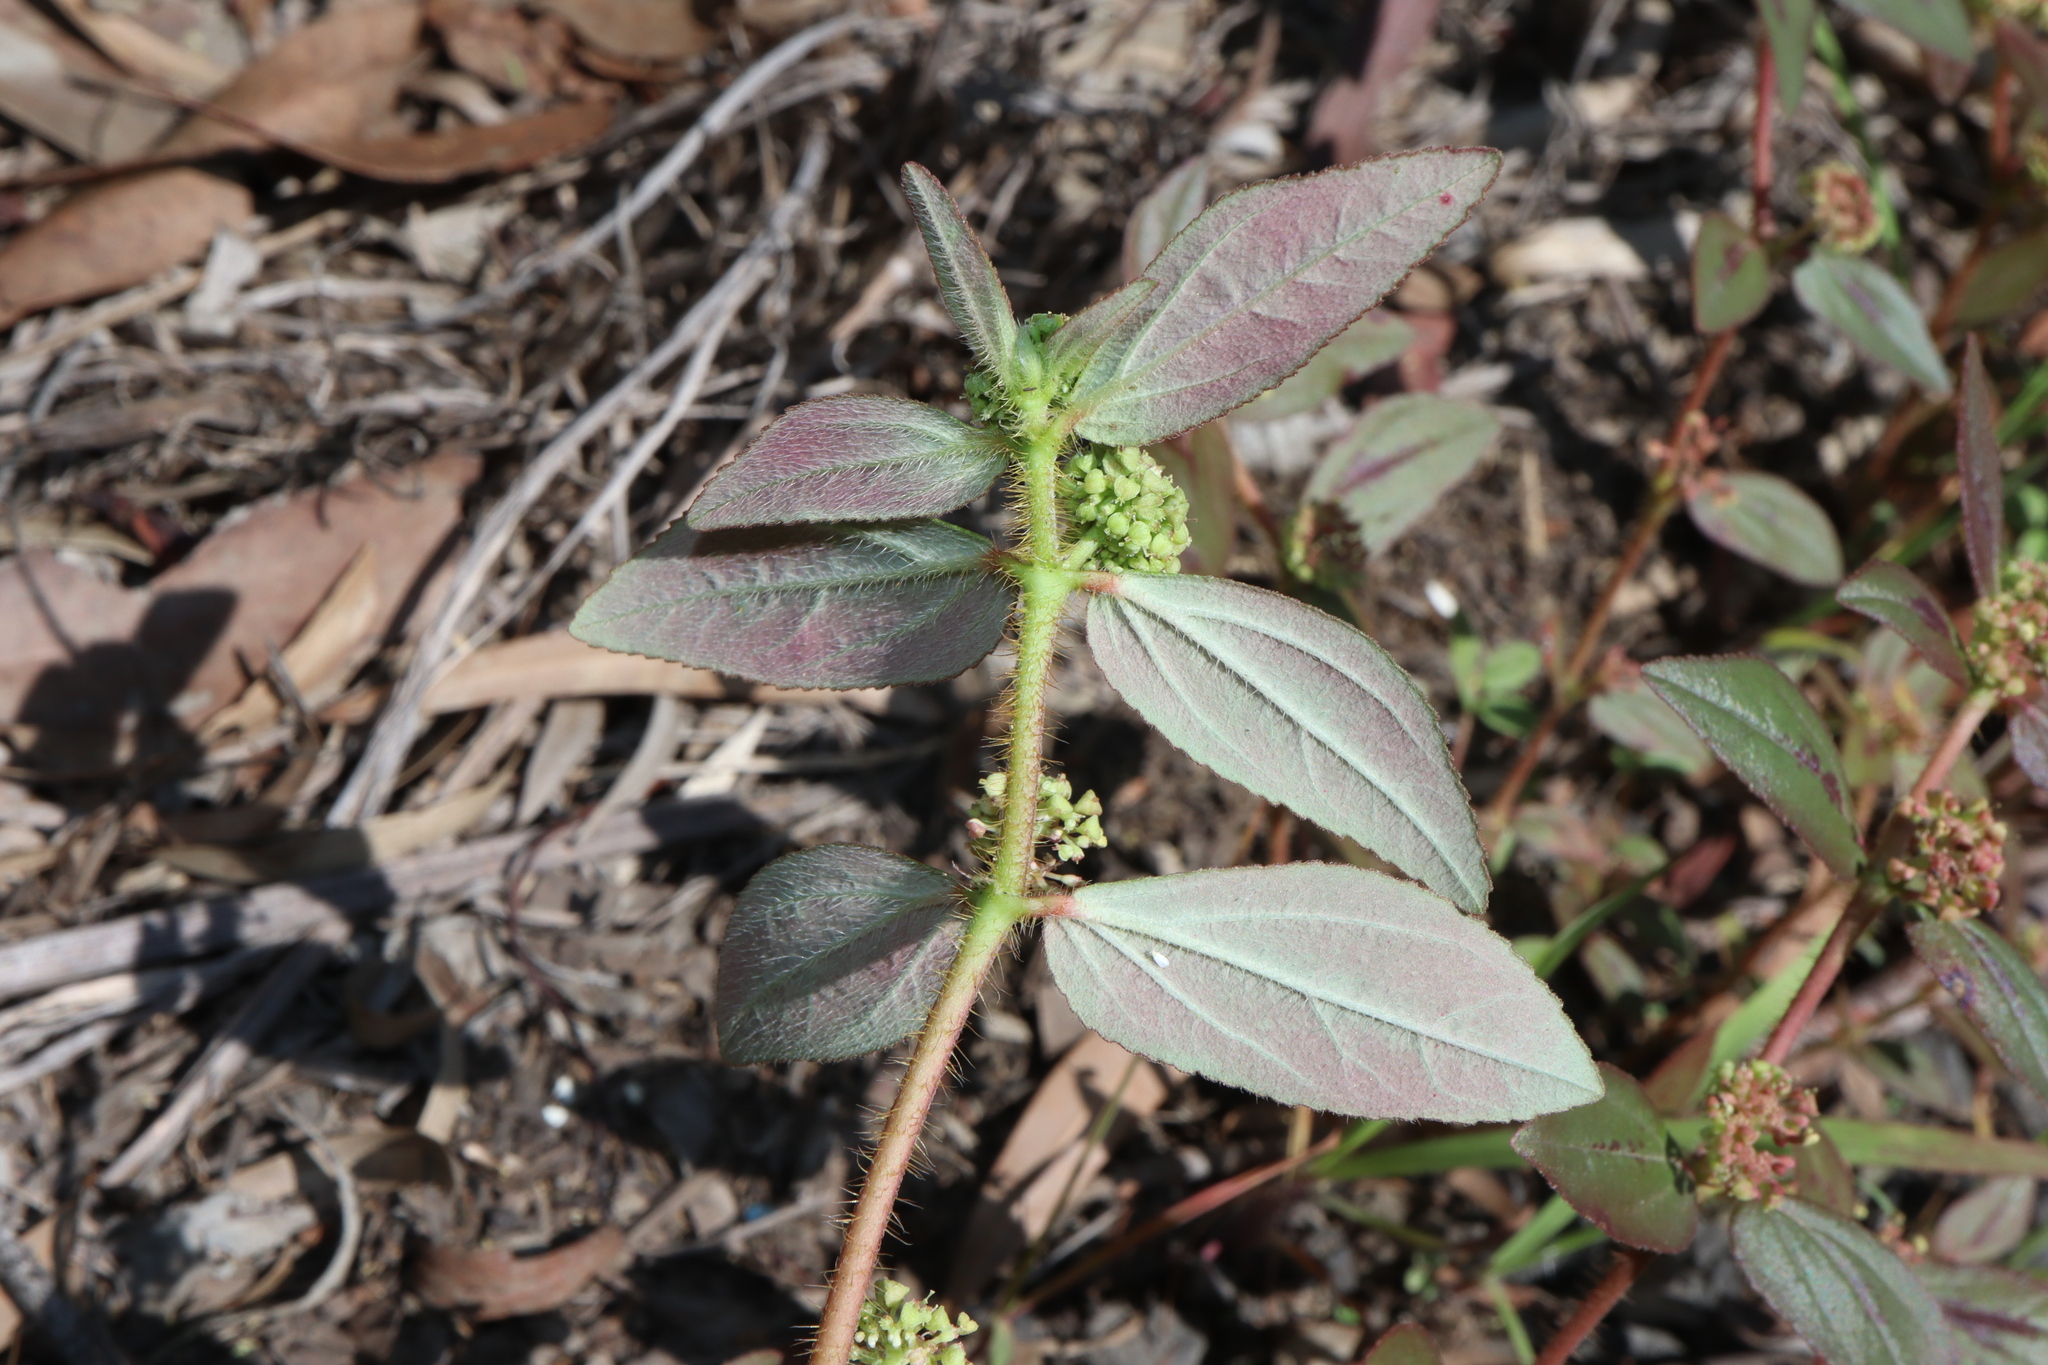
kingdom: Plantae
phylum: Tracheophyta
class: Magnoliopsida
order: Malpighiales
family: Euphorbiaceae
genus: Euphorbia
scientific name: Euphorbia hirta
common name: Pillpod sandmat
